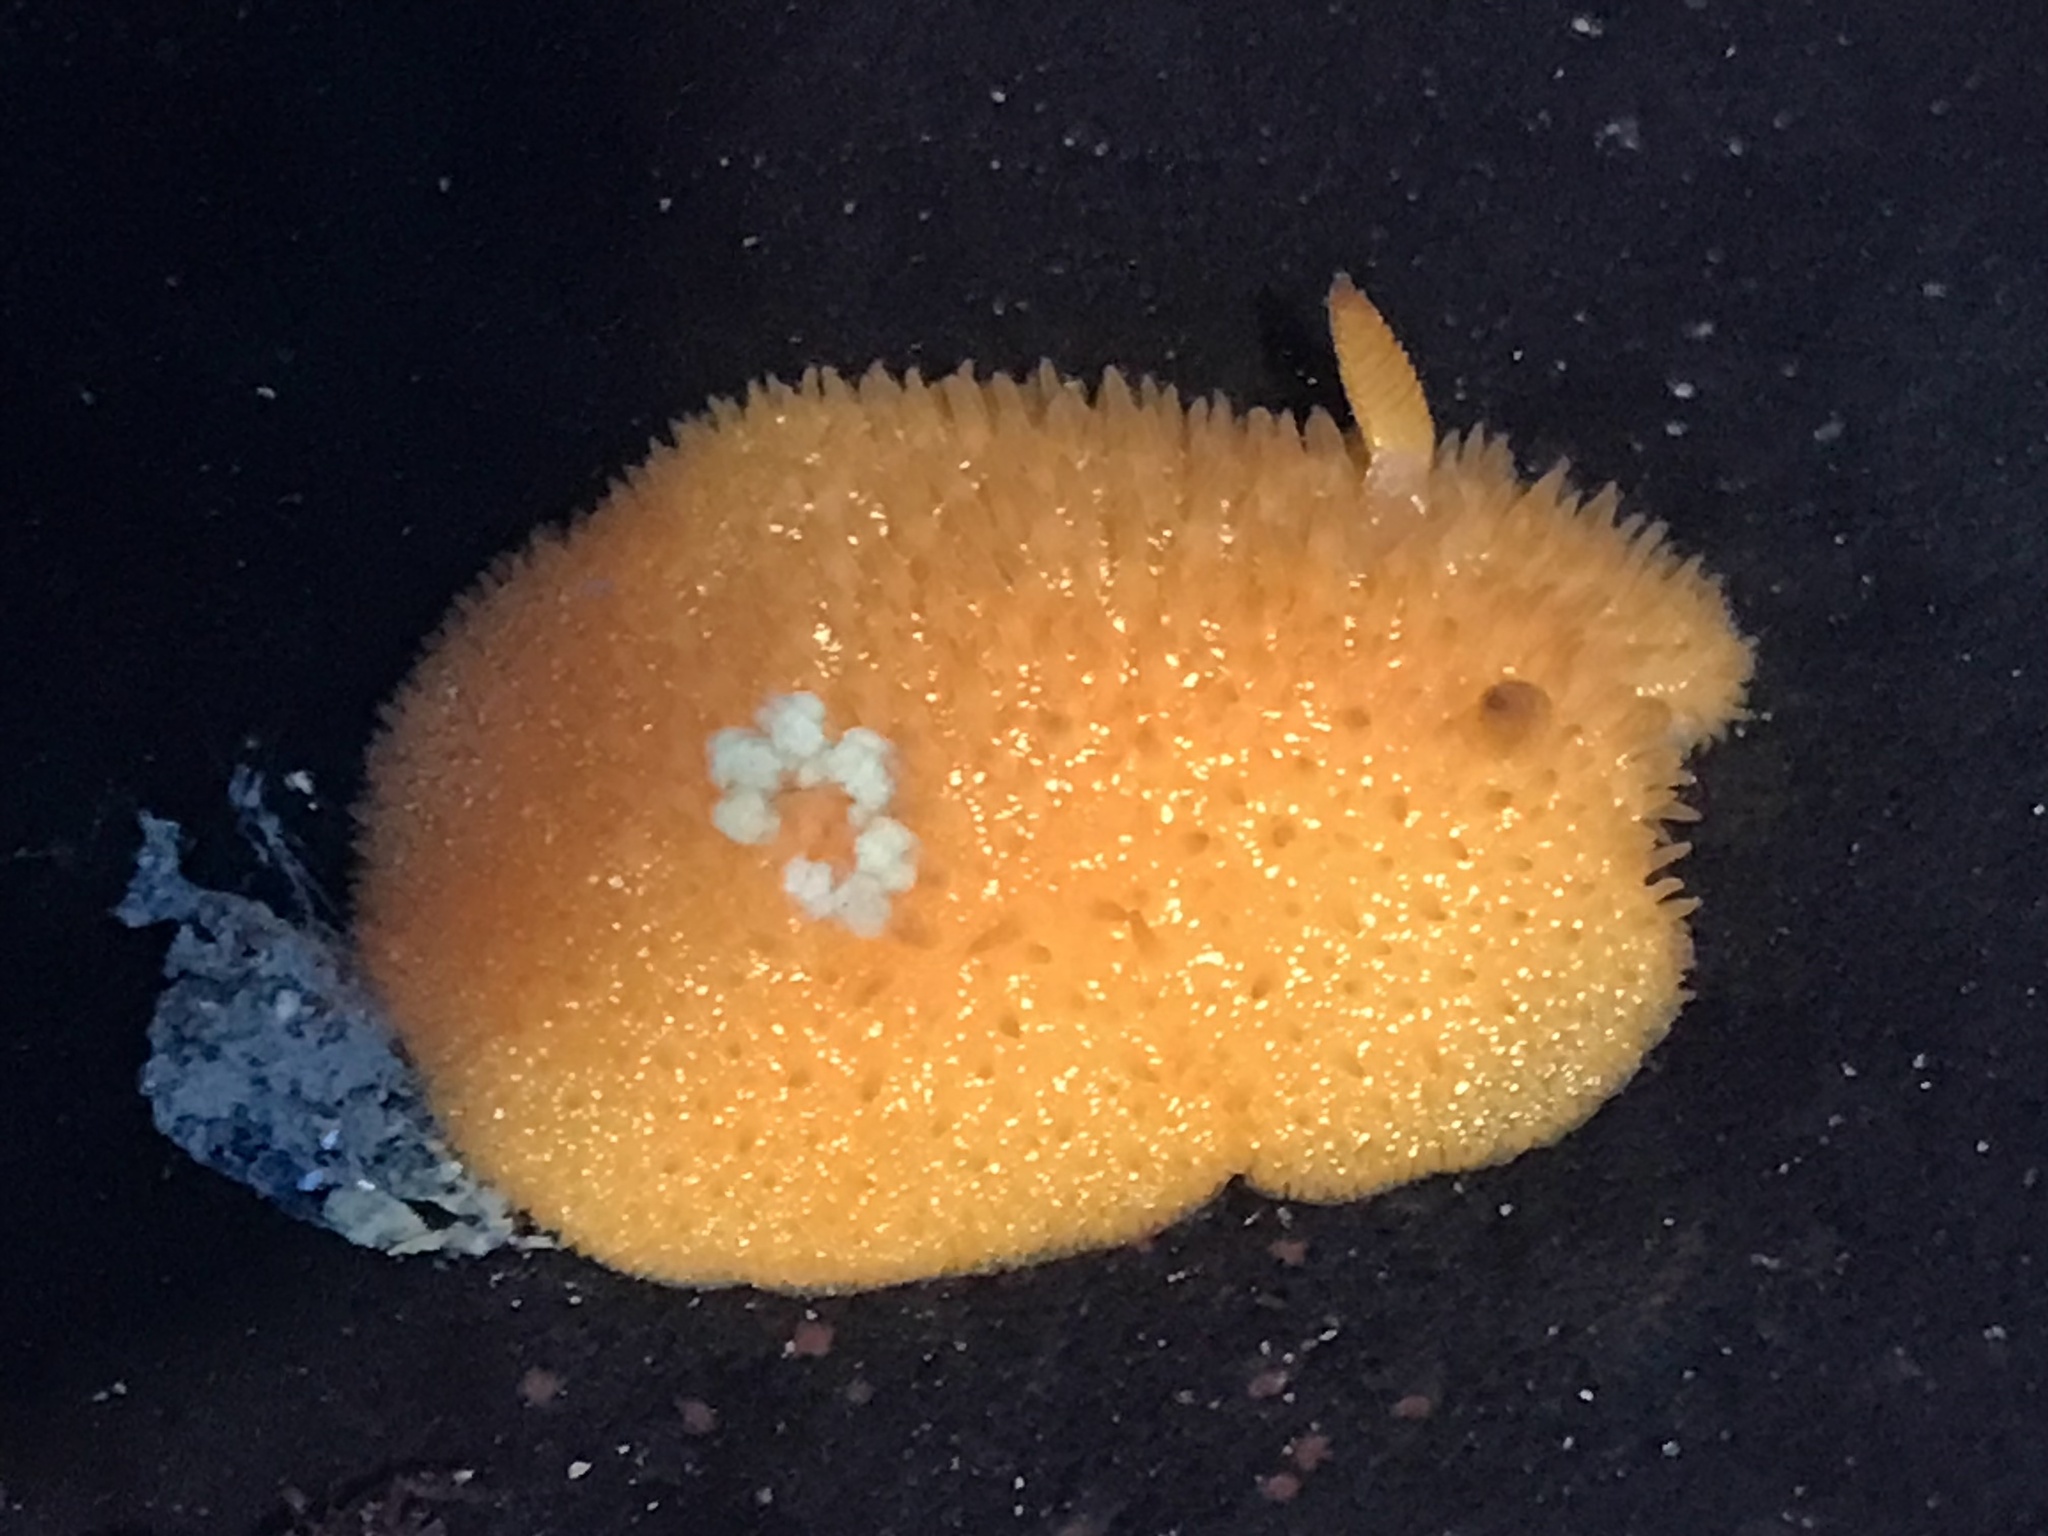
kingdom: Animalia
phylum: Mollusca
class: Gastropoda
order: Nudibranchia
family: Onchidorididae
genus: Acanthodoris
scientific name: Acanthodoris lutea
